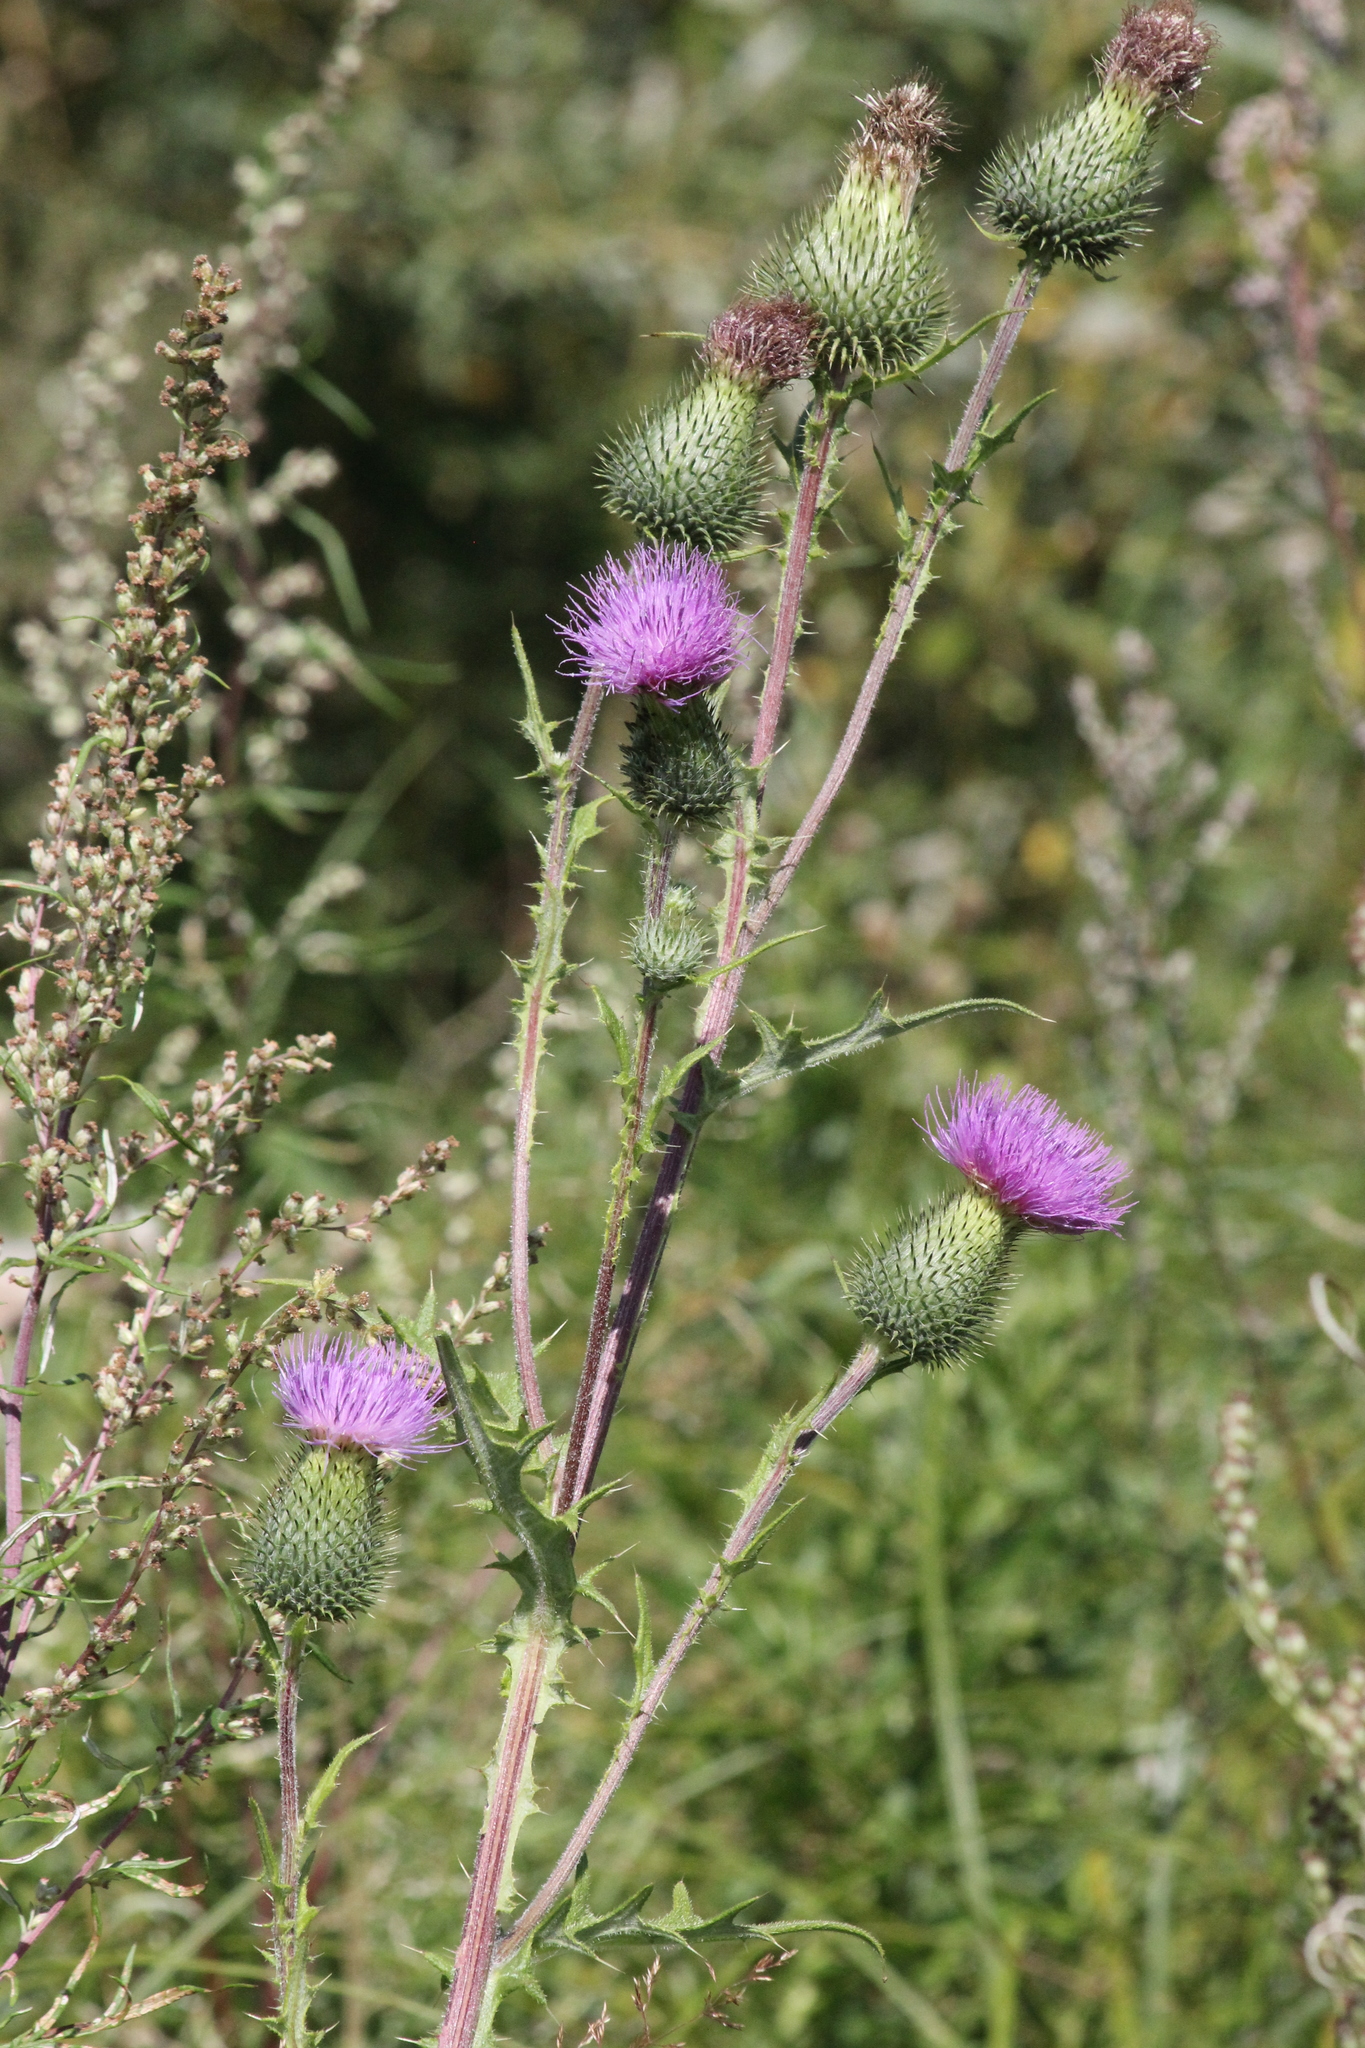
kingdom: Plantae
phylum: Tracheophyta
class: Magnoliopsida
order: Asterales
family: Asteraceae
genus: Cirsium
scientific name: Cirsium vulgare
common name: Bull thistle
